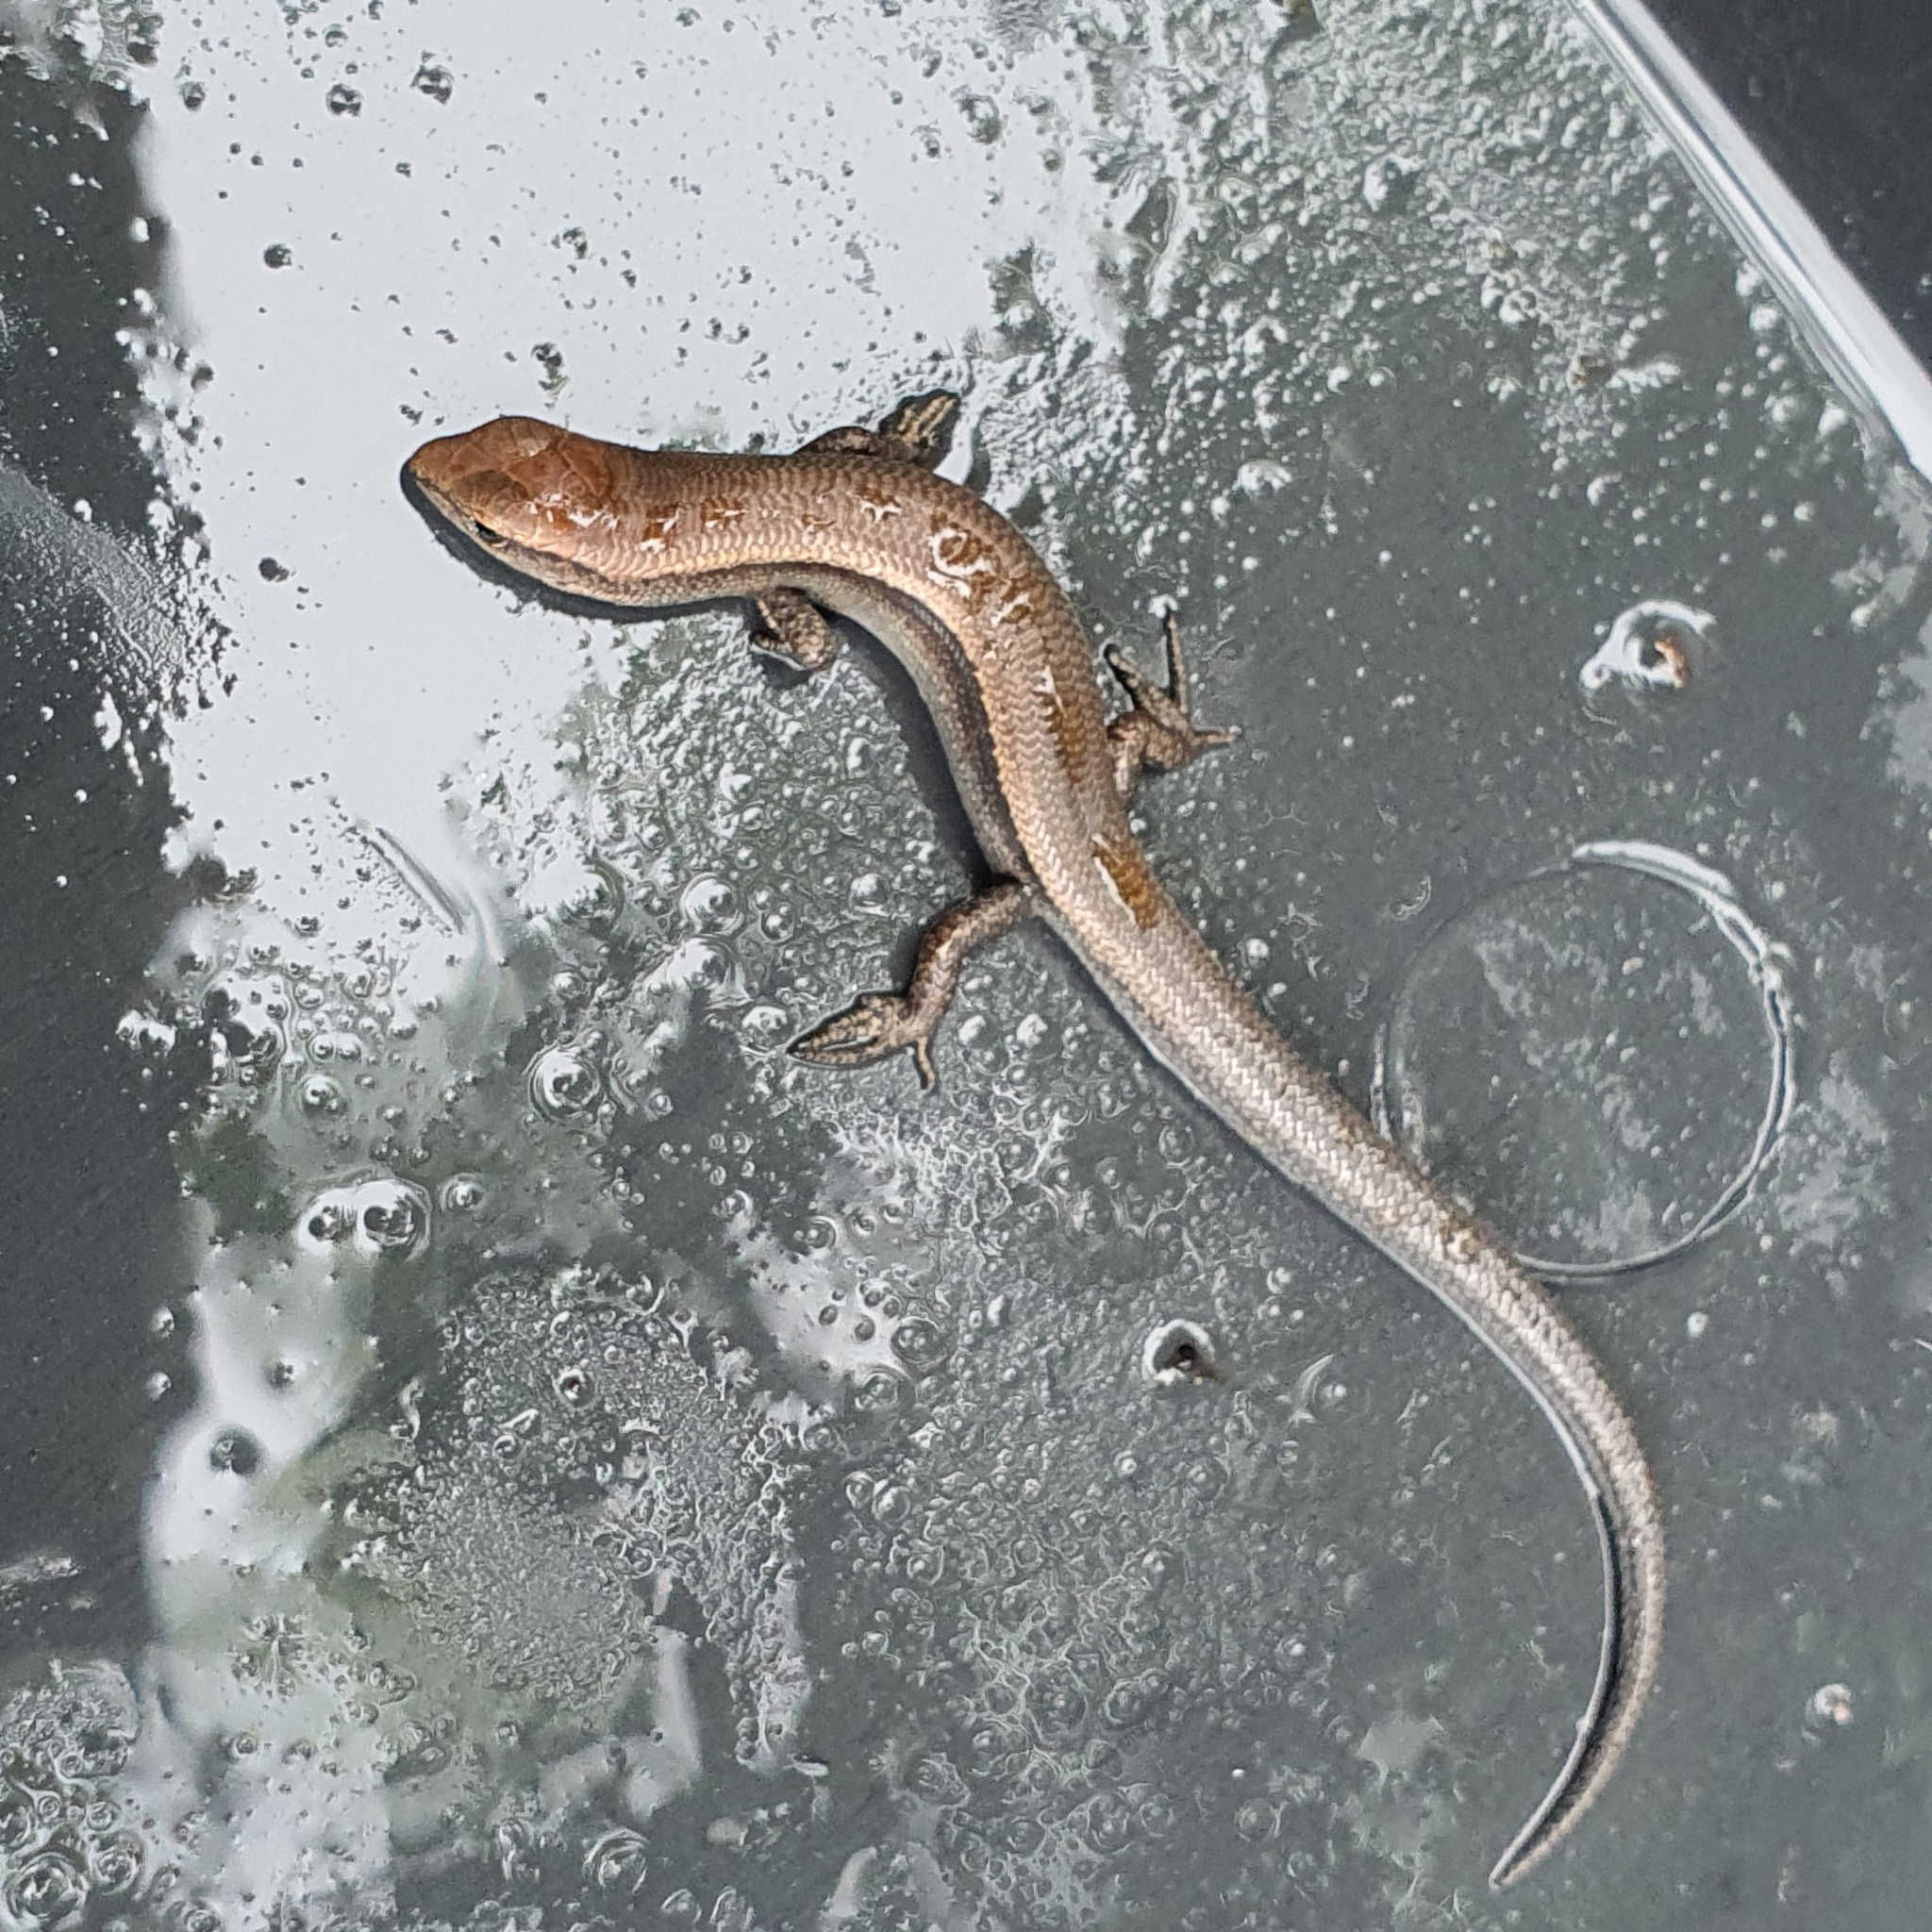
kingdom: Animalia
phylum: Chordata
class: Squamata
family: Scincidae
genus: Lampropholis
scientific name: Lampropholis delicata
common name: Plague skink
